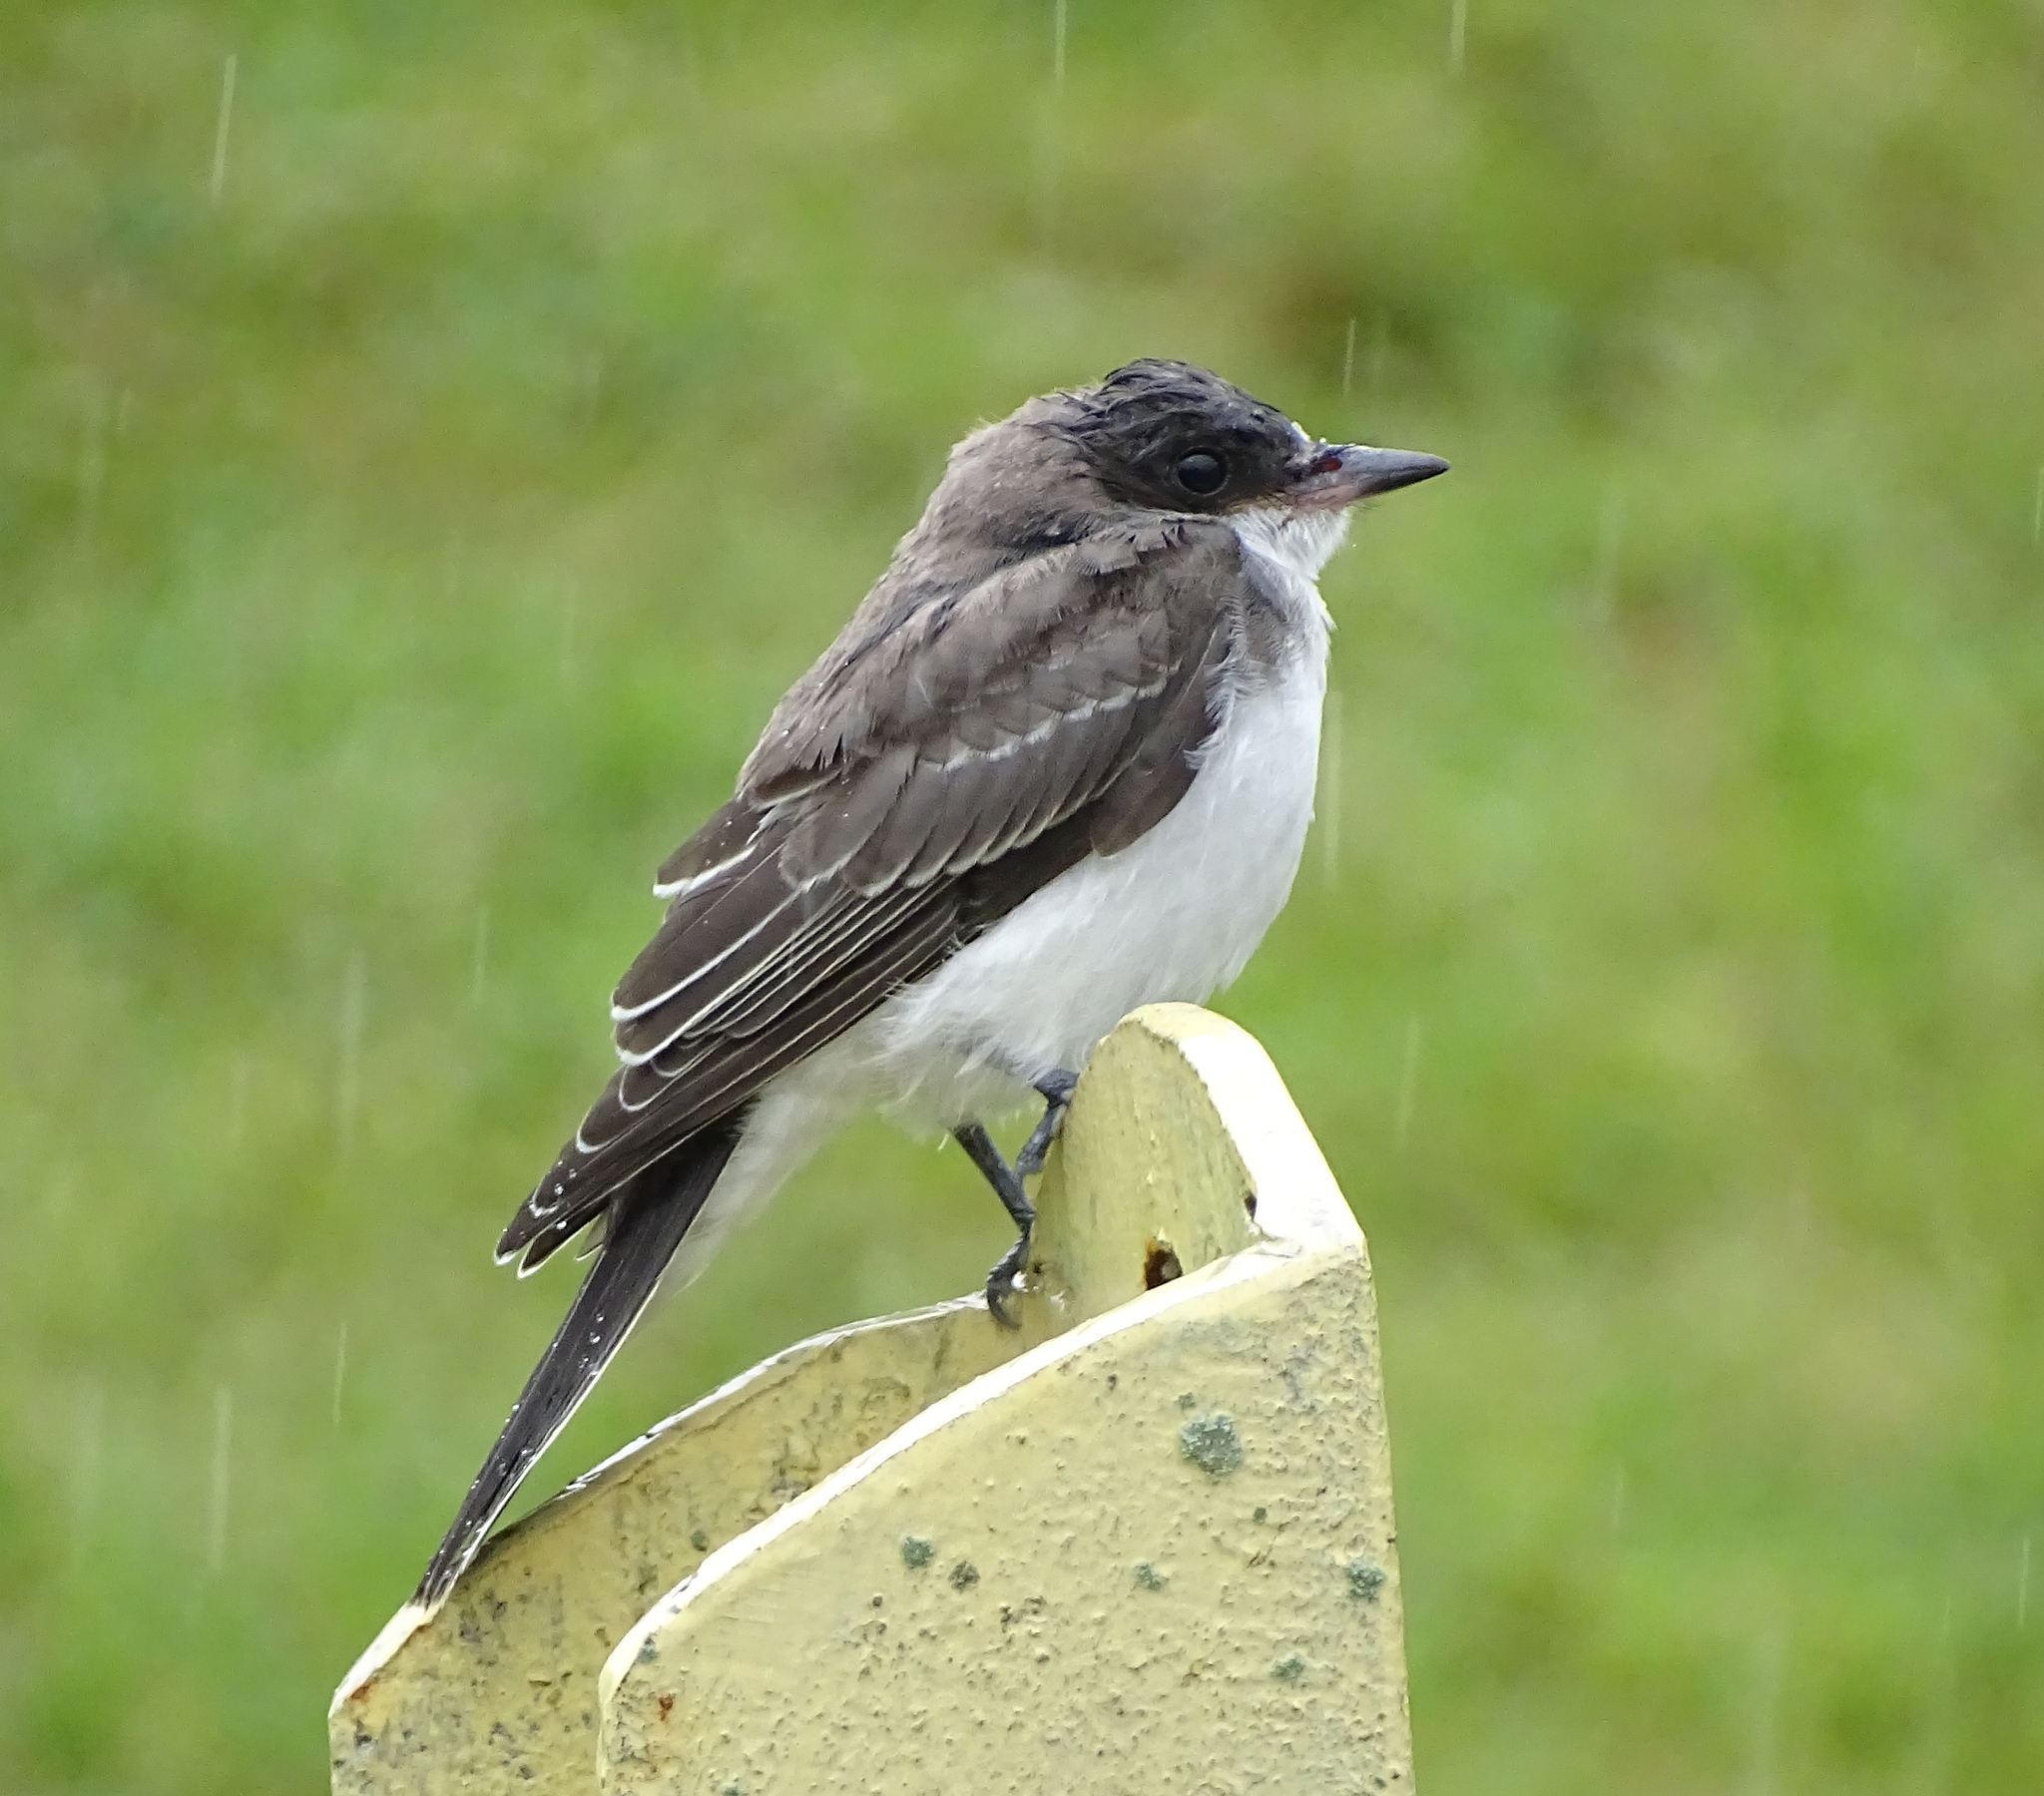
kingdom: Animalia
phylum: Chordata
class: Aves
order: Passeriformes
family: Tyrannidae
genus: Tyrannus
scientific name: Tyrannus tyrannus
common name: Eastern kingbird
